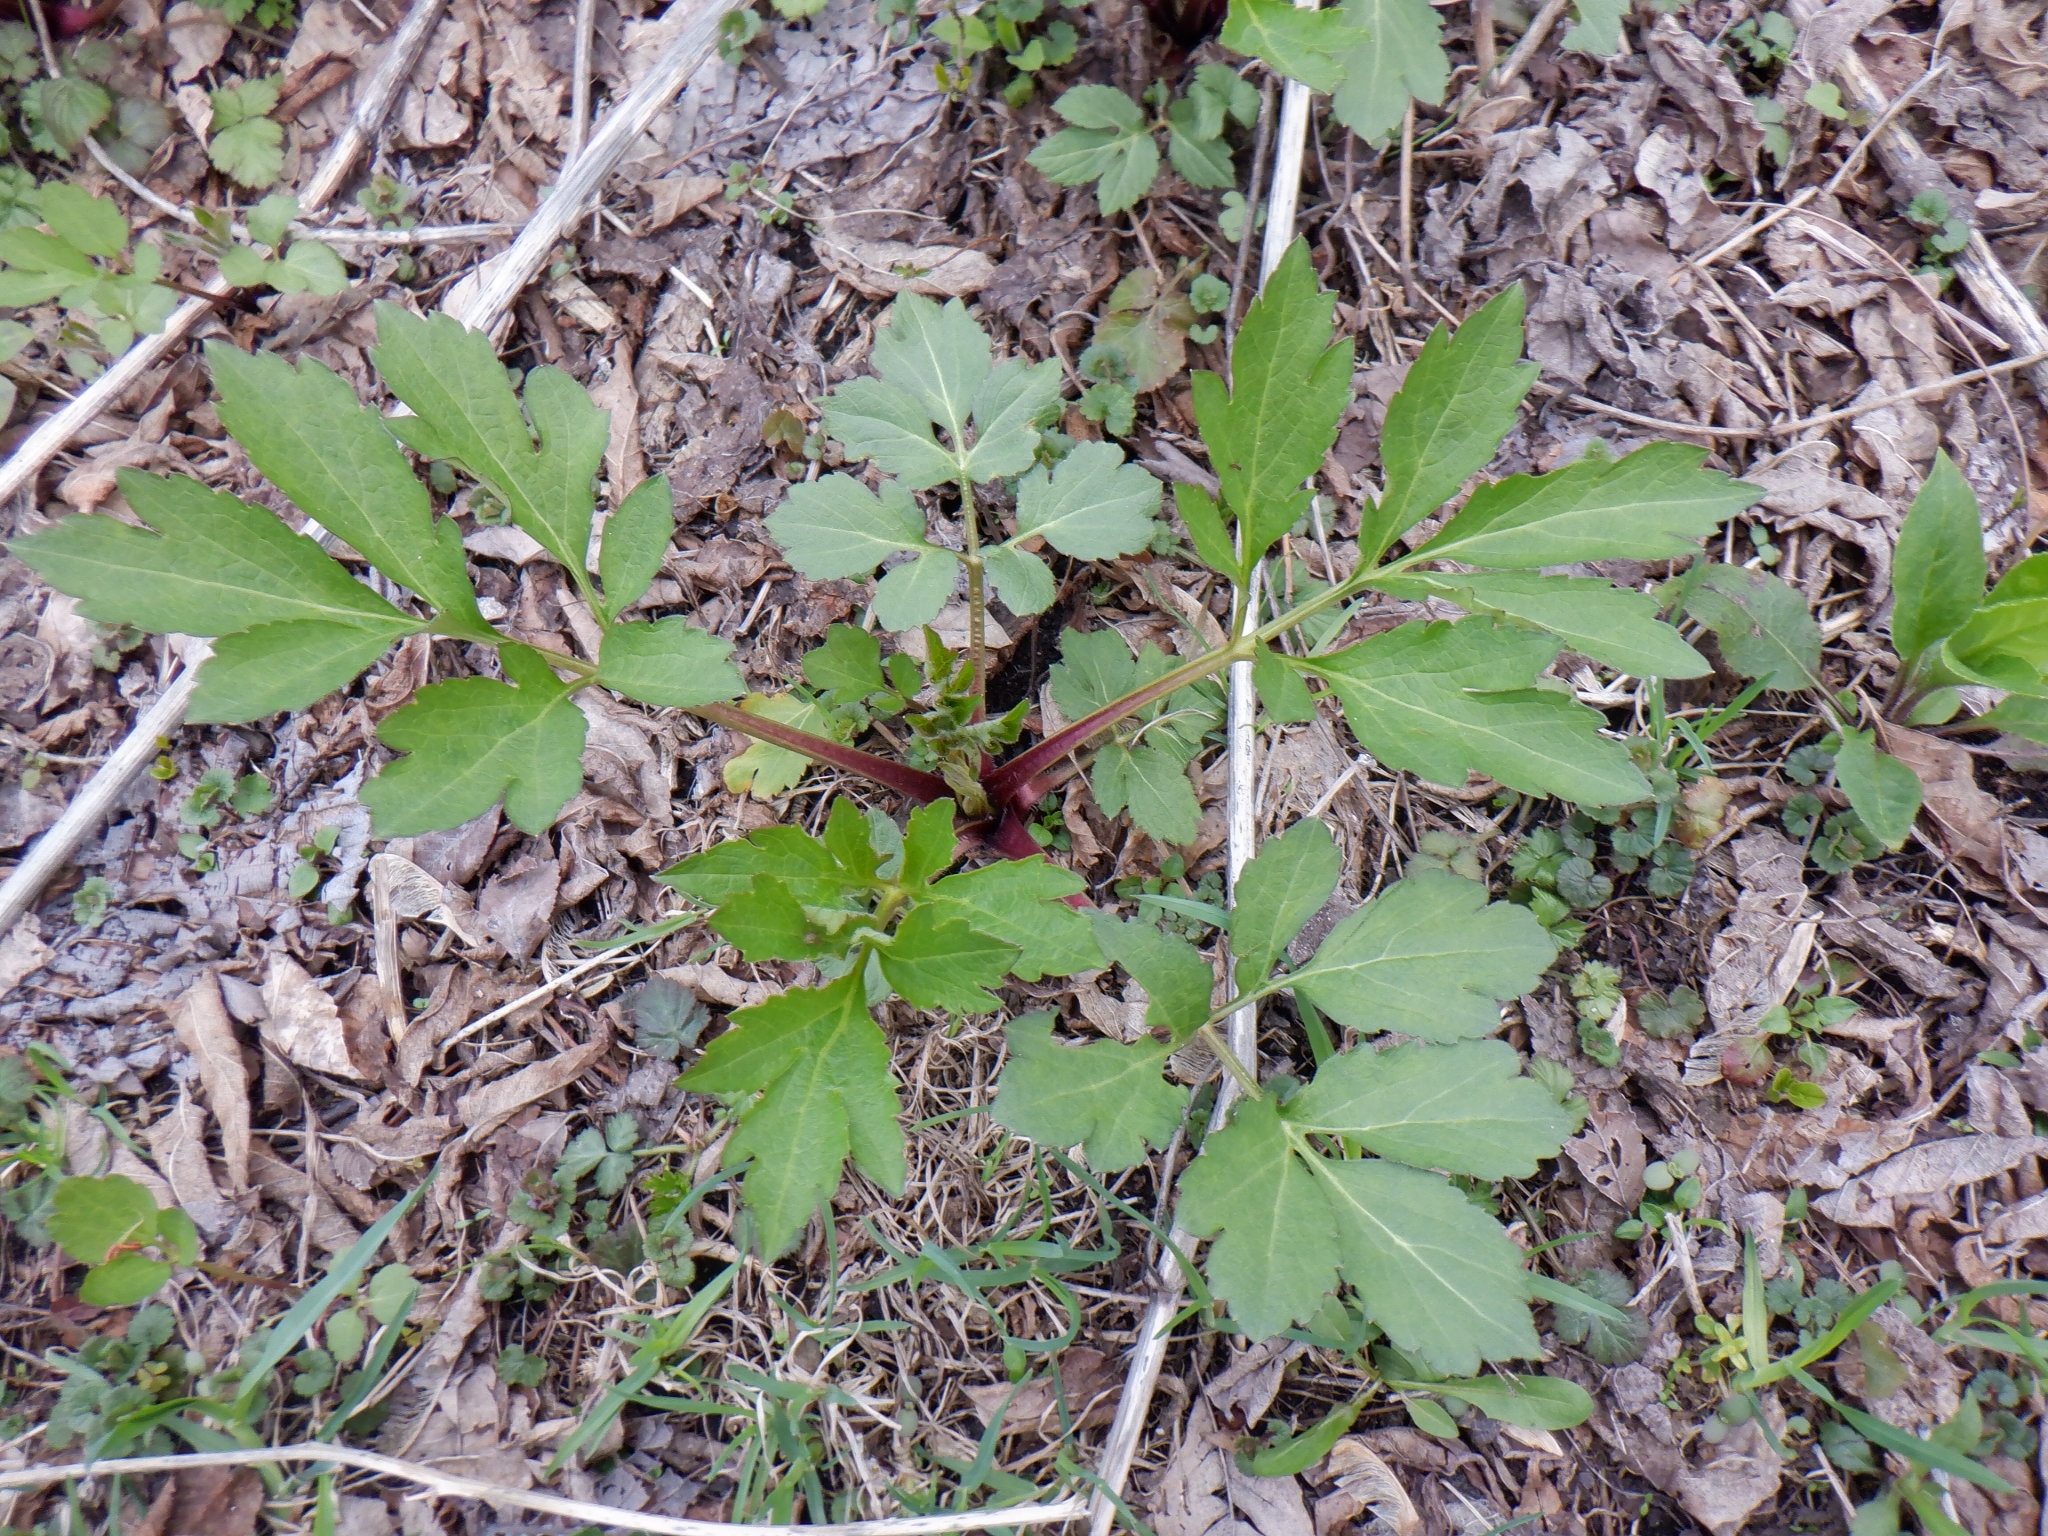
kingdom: Plantae
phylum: Tracheophyta
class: Magnoliopsida
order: Asterales
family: Asteraceae
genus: Rudbeckia
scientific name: Rudbeckia laciniata
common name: Coneflower
